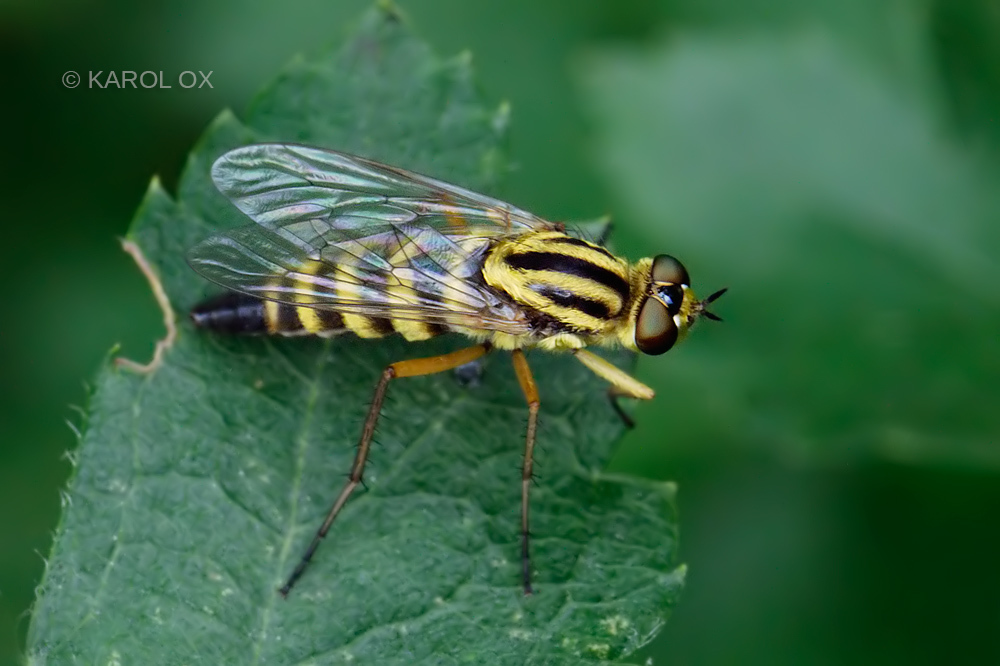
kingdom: Animalia
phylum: Arthropoda
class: Insecta
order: Diptera
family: Therevidae
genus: Thereva
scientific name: Thereva aurata
